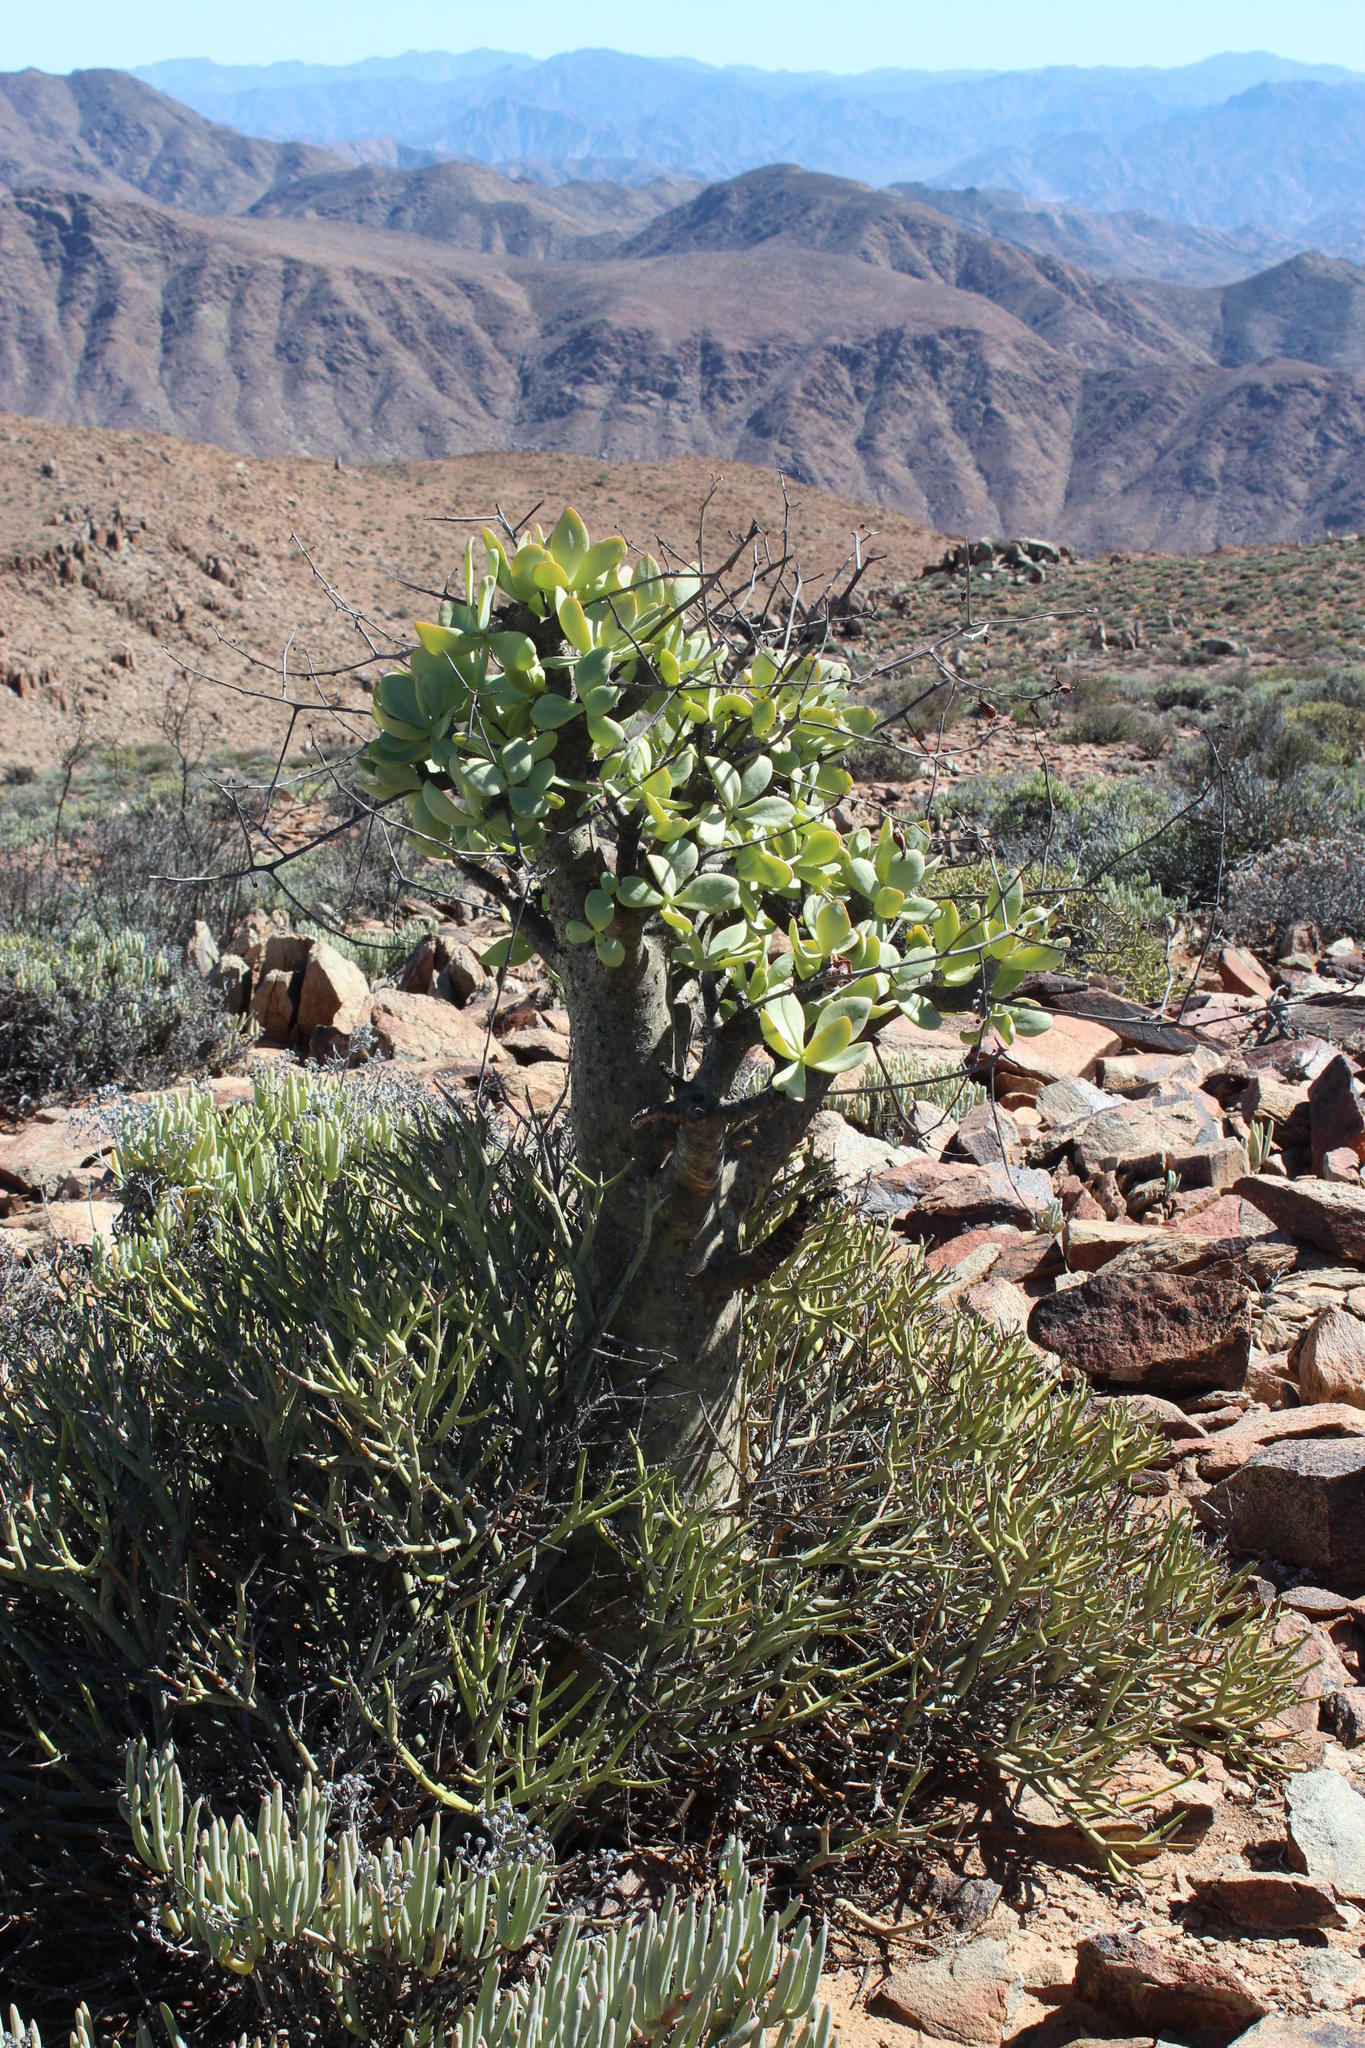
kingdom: Plantae
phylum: Tracheophyta
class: Magnoliopsida
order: Saxifragales
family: Crassulaceae
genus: Tylecodon
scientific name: Tylecodon paniculatus
